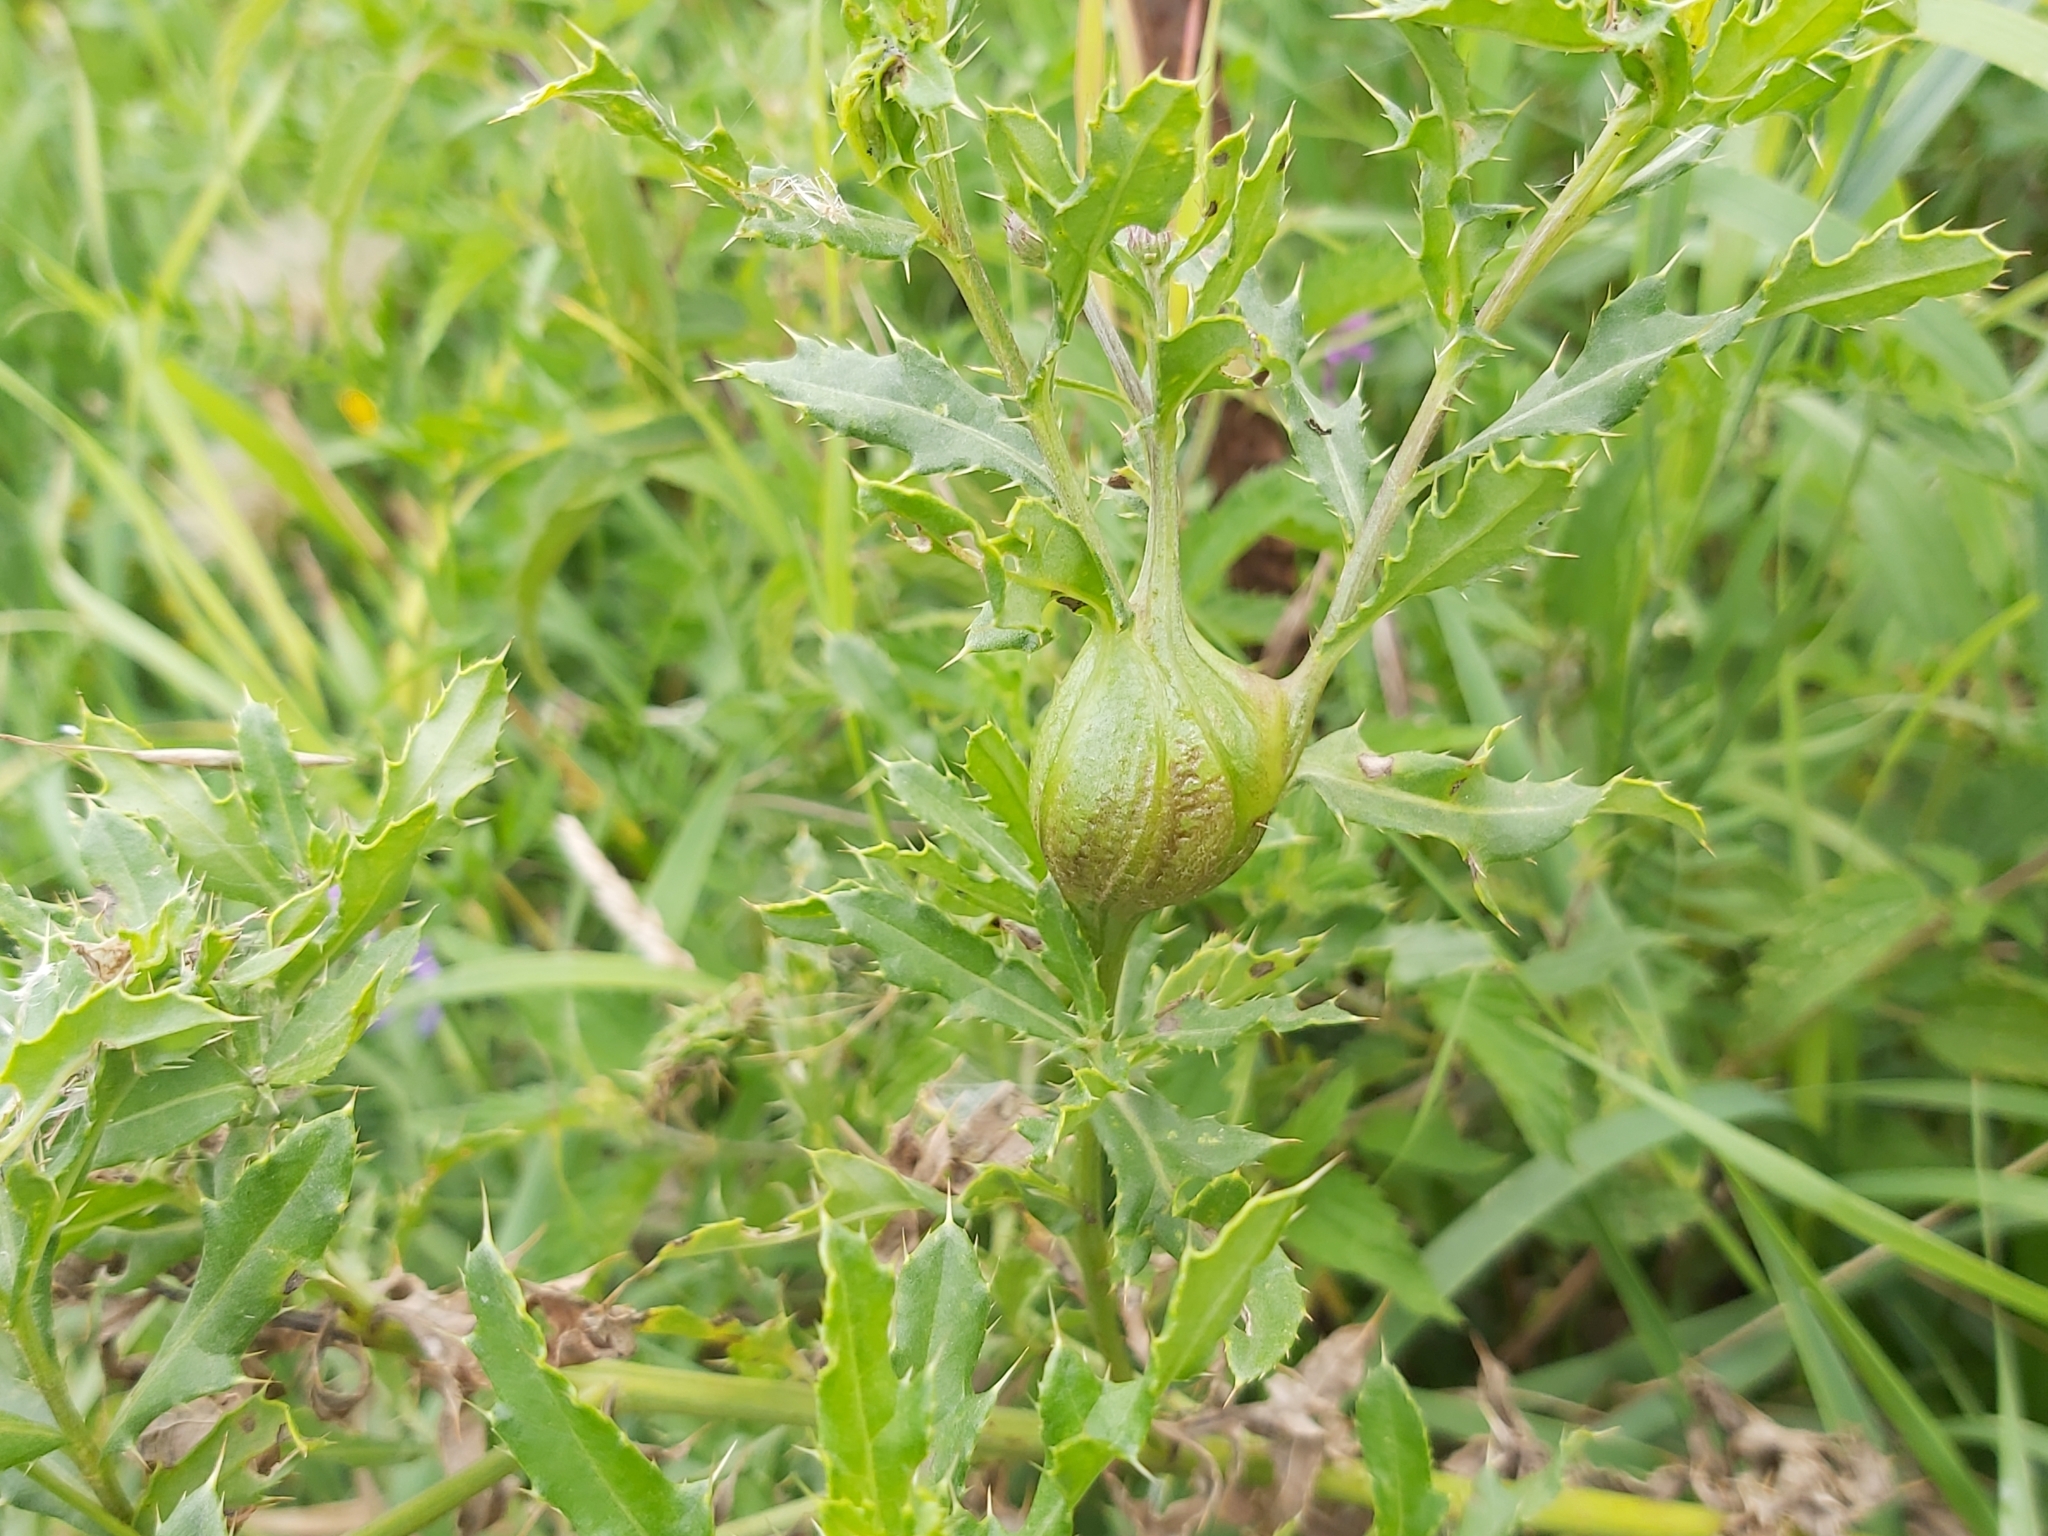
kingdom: Animalia
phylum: Arthropoda
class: Insecta
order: Diptera
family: Tephritidae
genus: Urophora
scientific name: Urophora cardui
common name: Fruit fly
